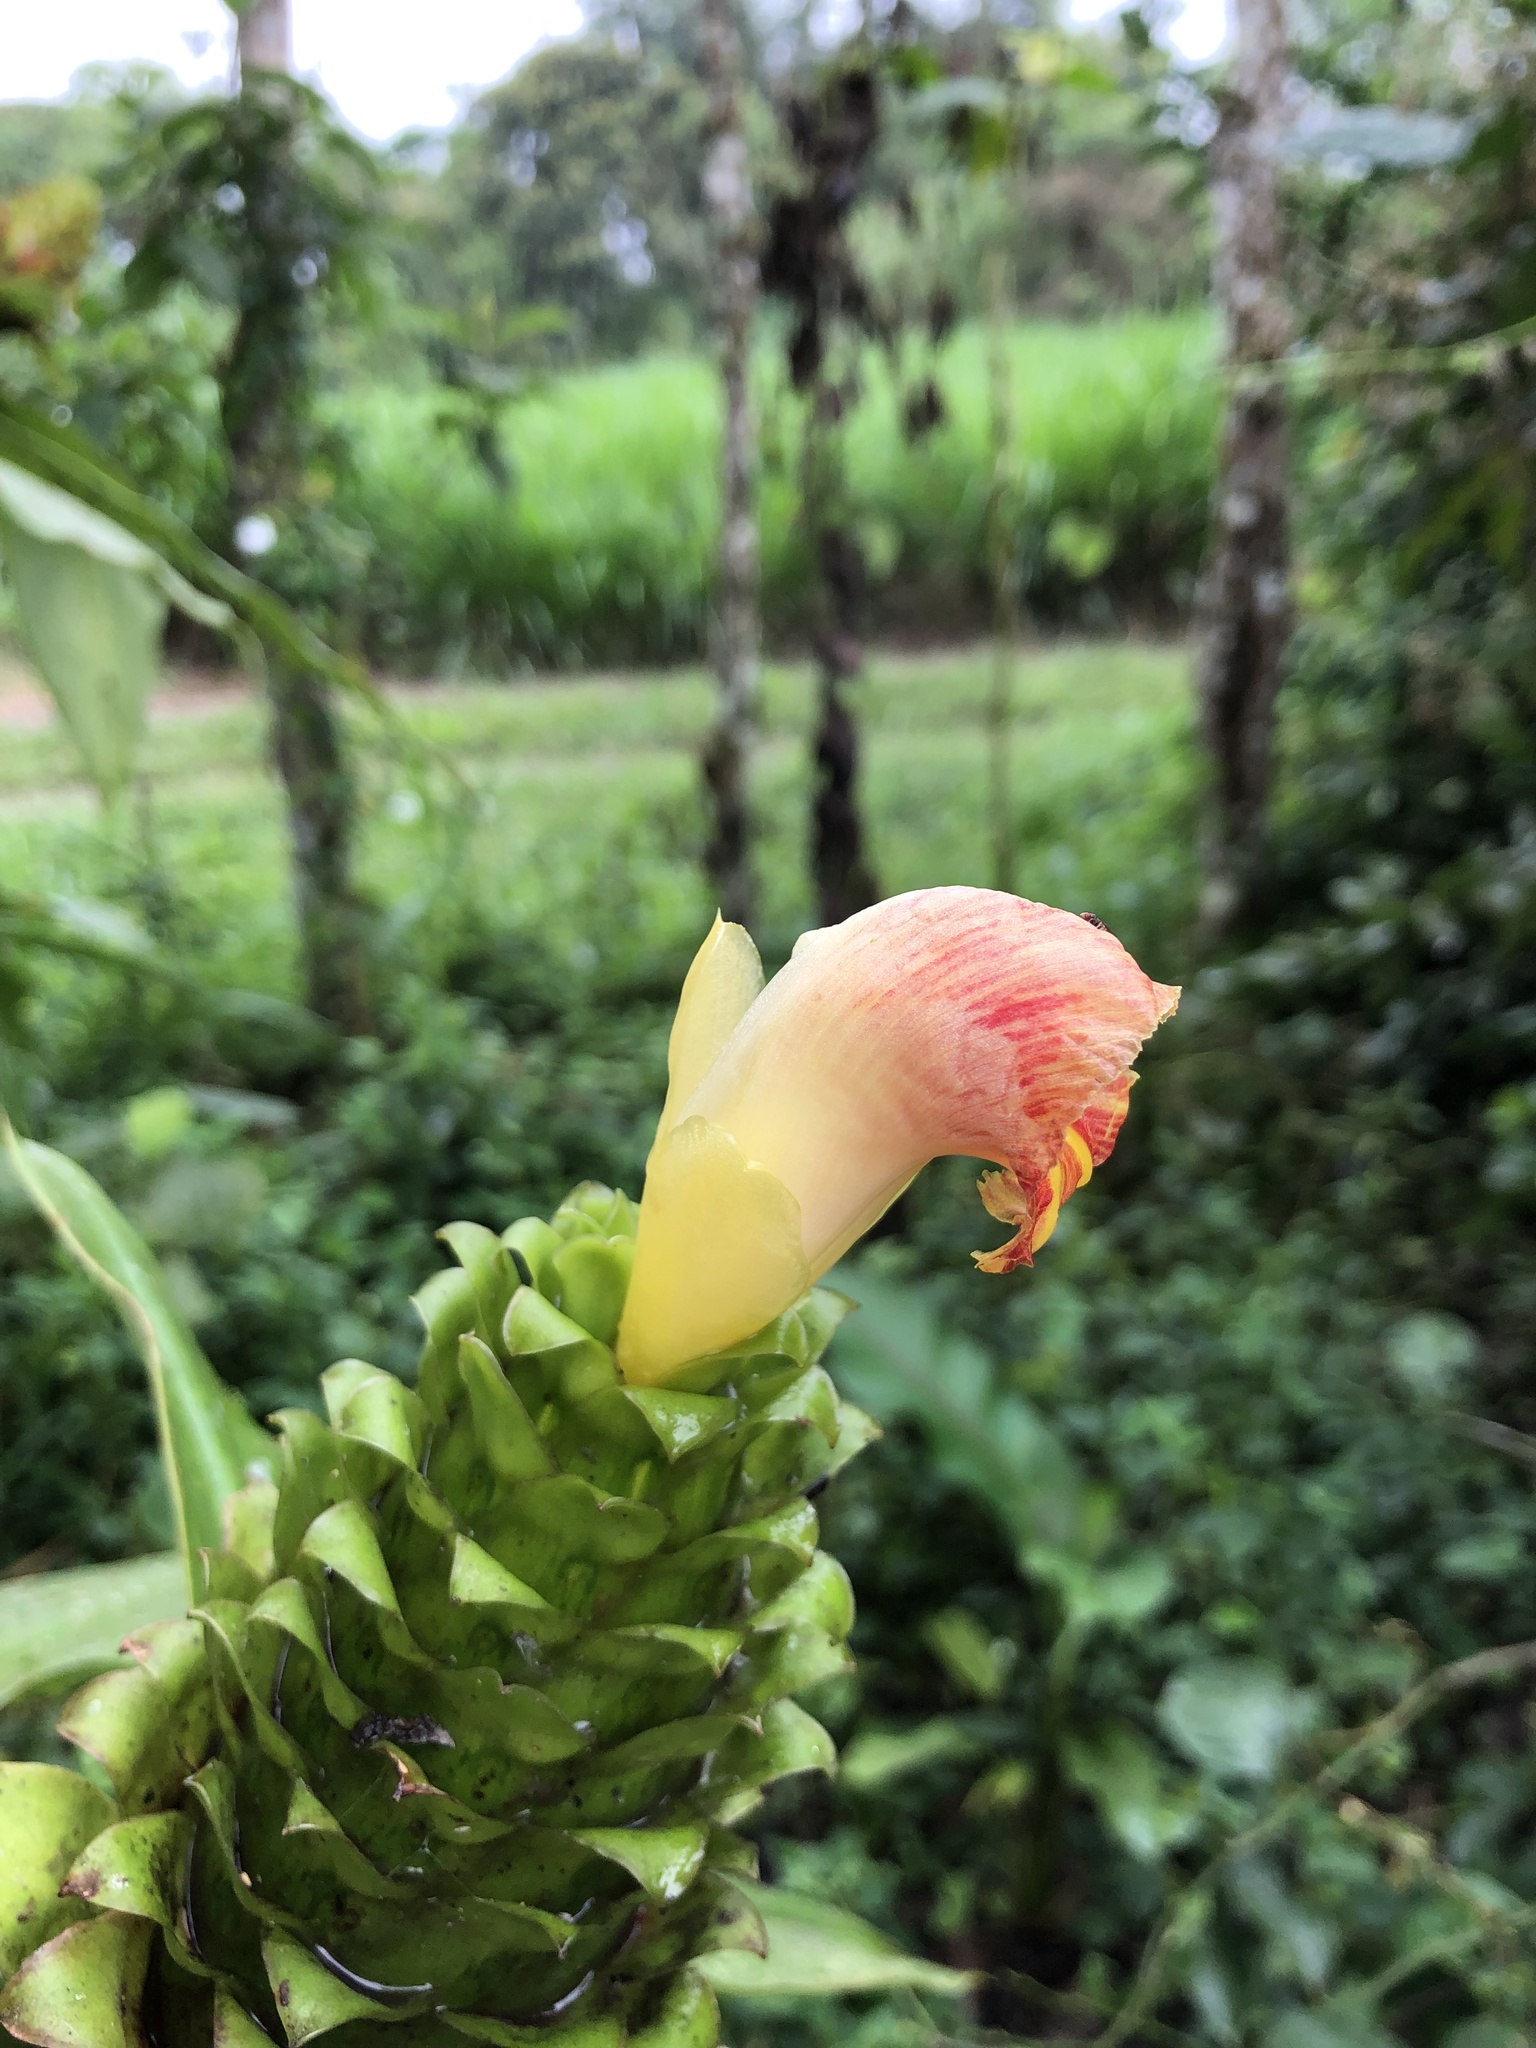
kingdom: Plantae
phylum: Tracheophyta
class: Liliopsida
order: Zingiberales
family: Costaceae
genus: Costus
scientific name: Costus gibbosus
